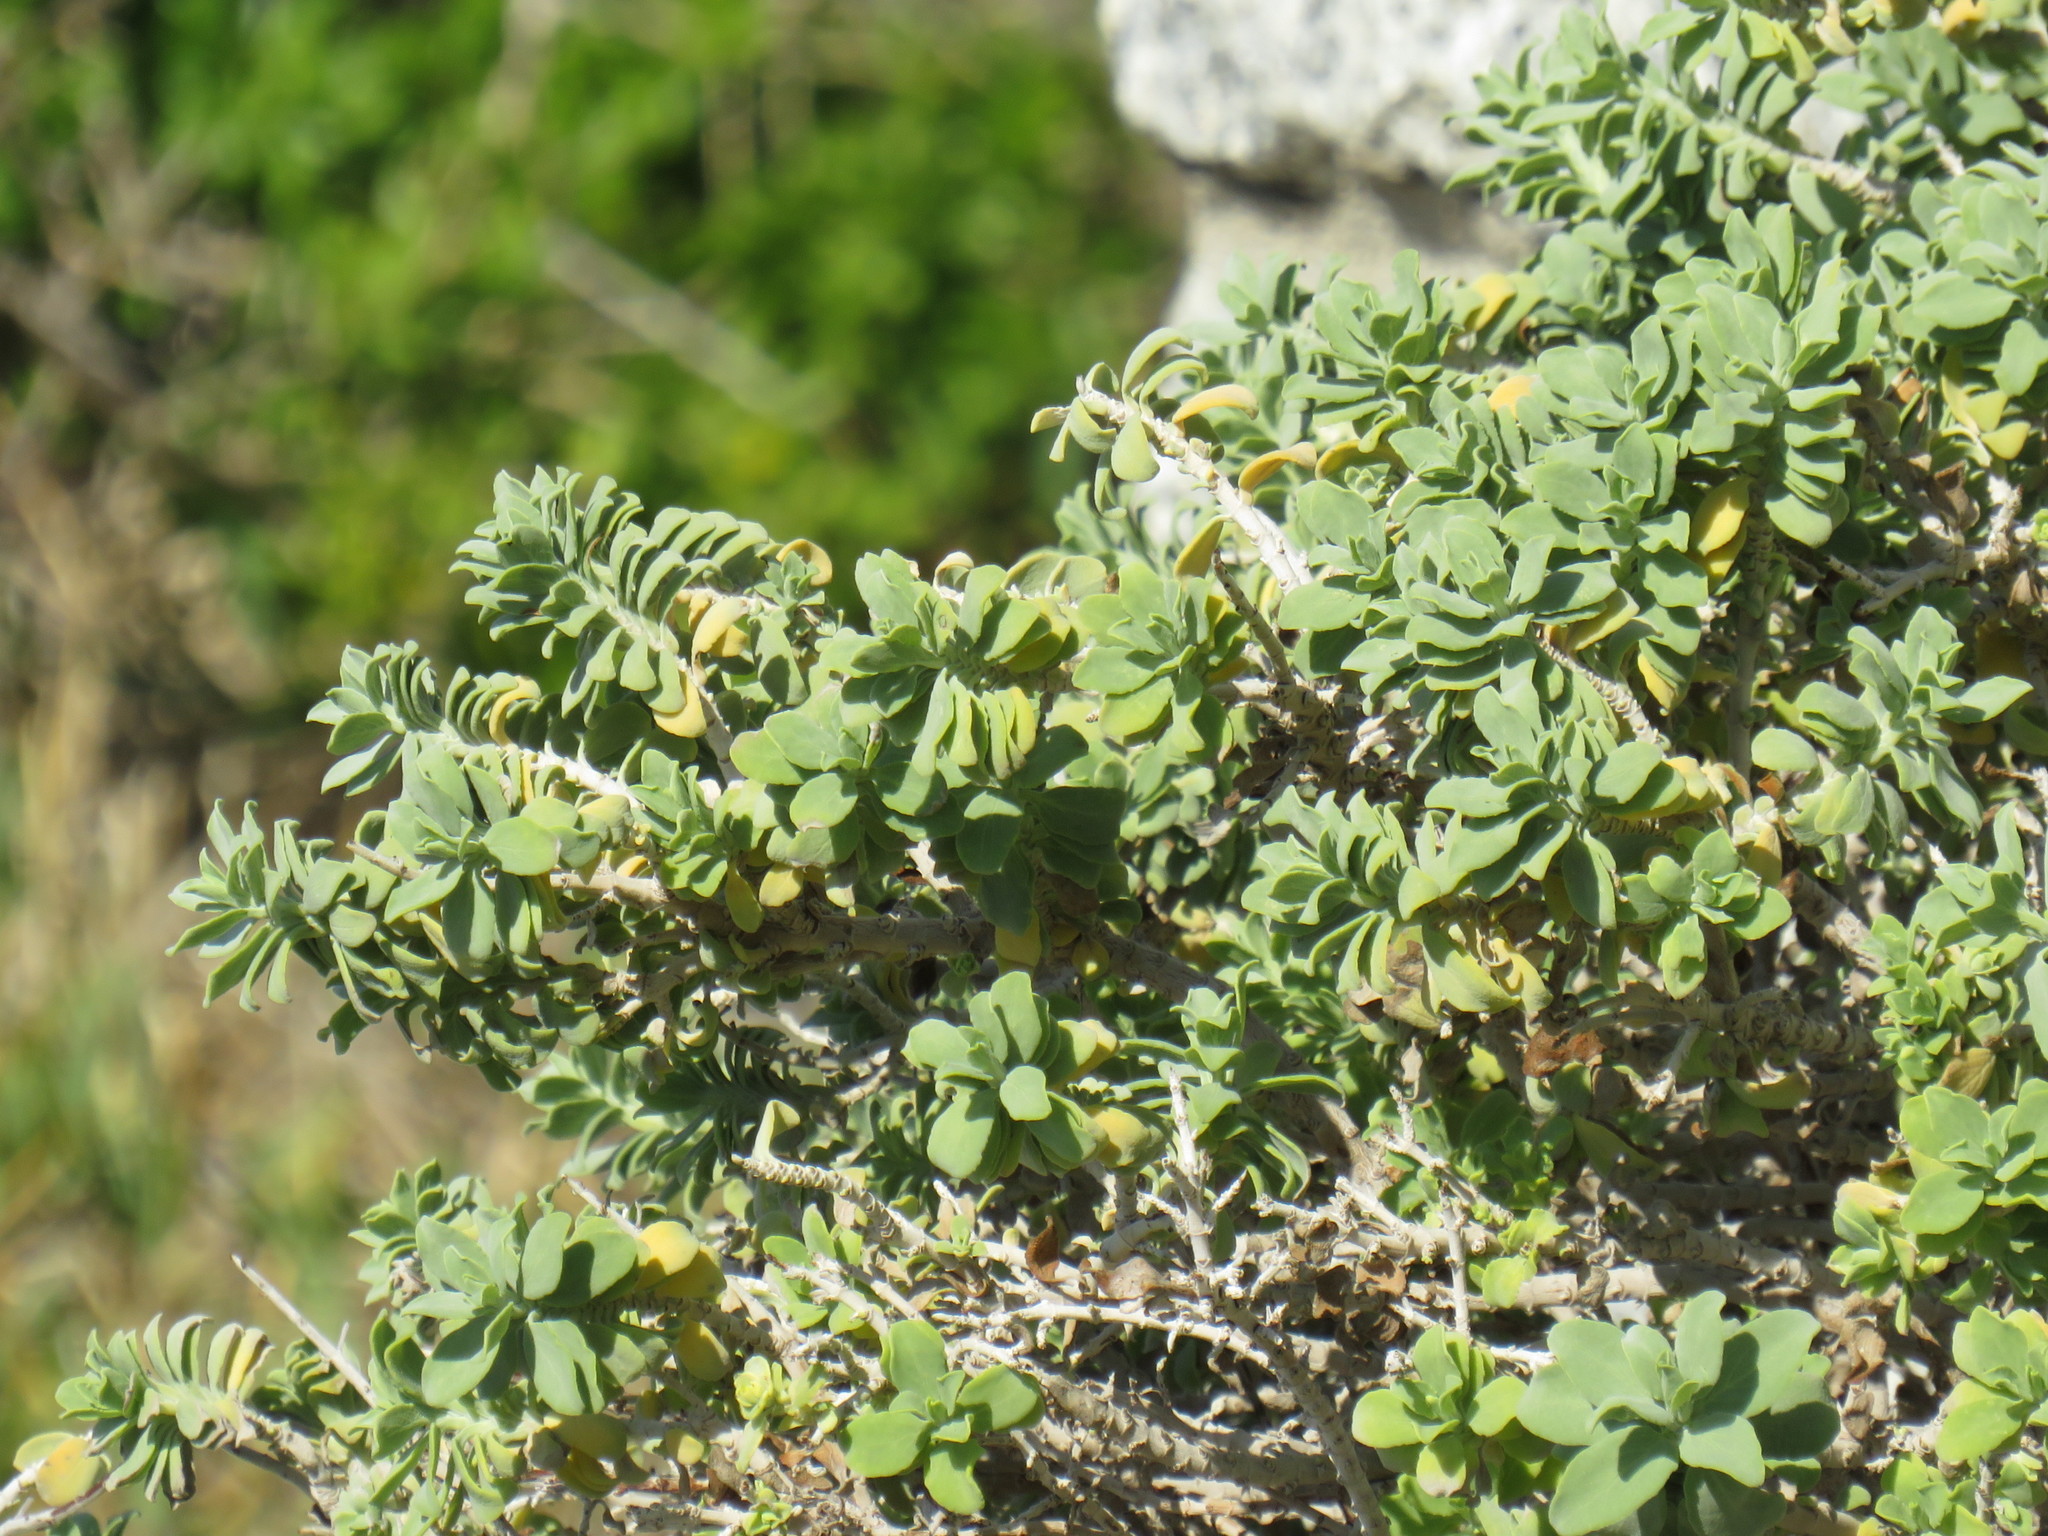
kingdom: Plantae
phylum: Tracheophyta
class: Magnoliopsida
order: Lamiales
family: Lamiaceae
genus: Salvia
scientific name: Salvia aurea
